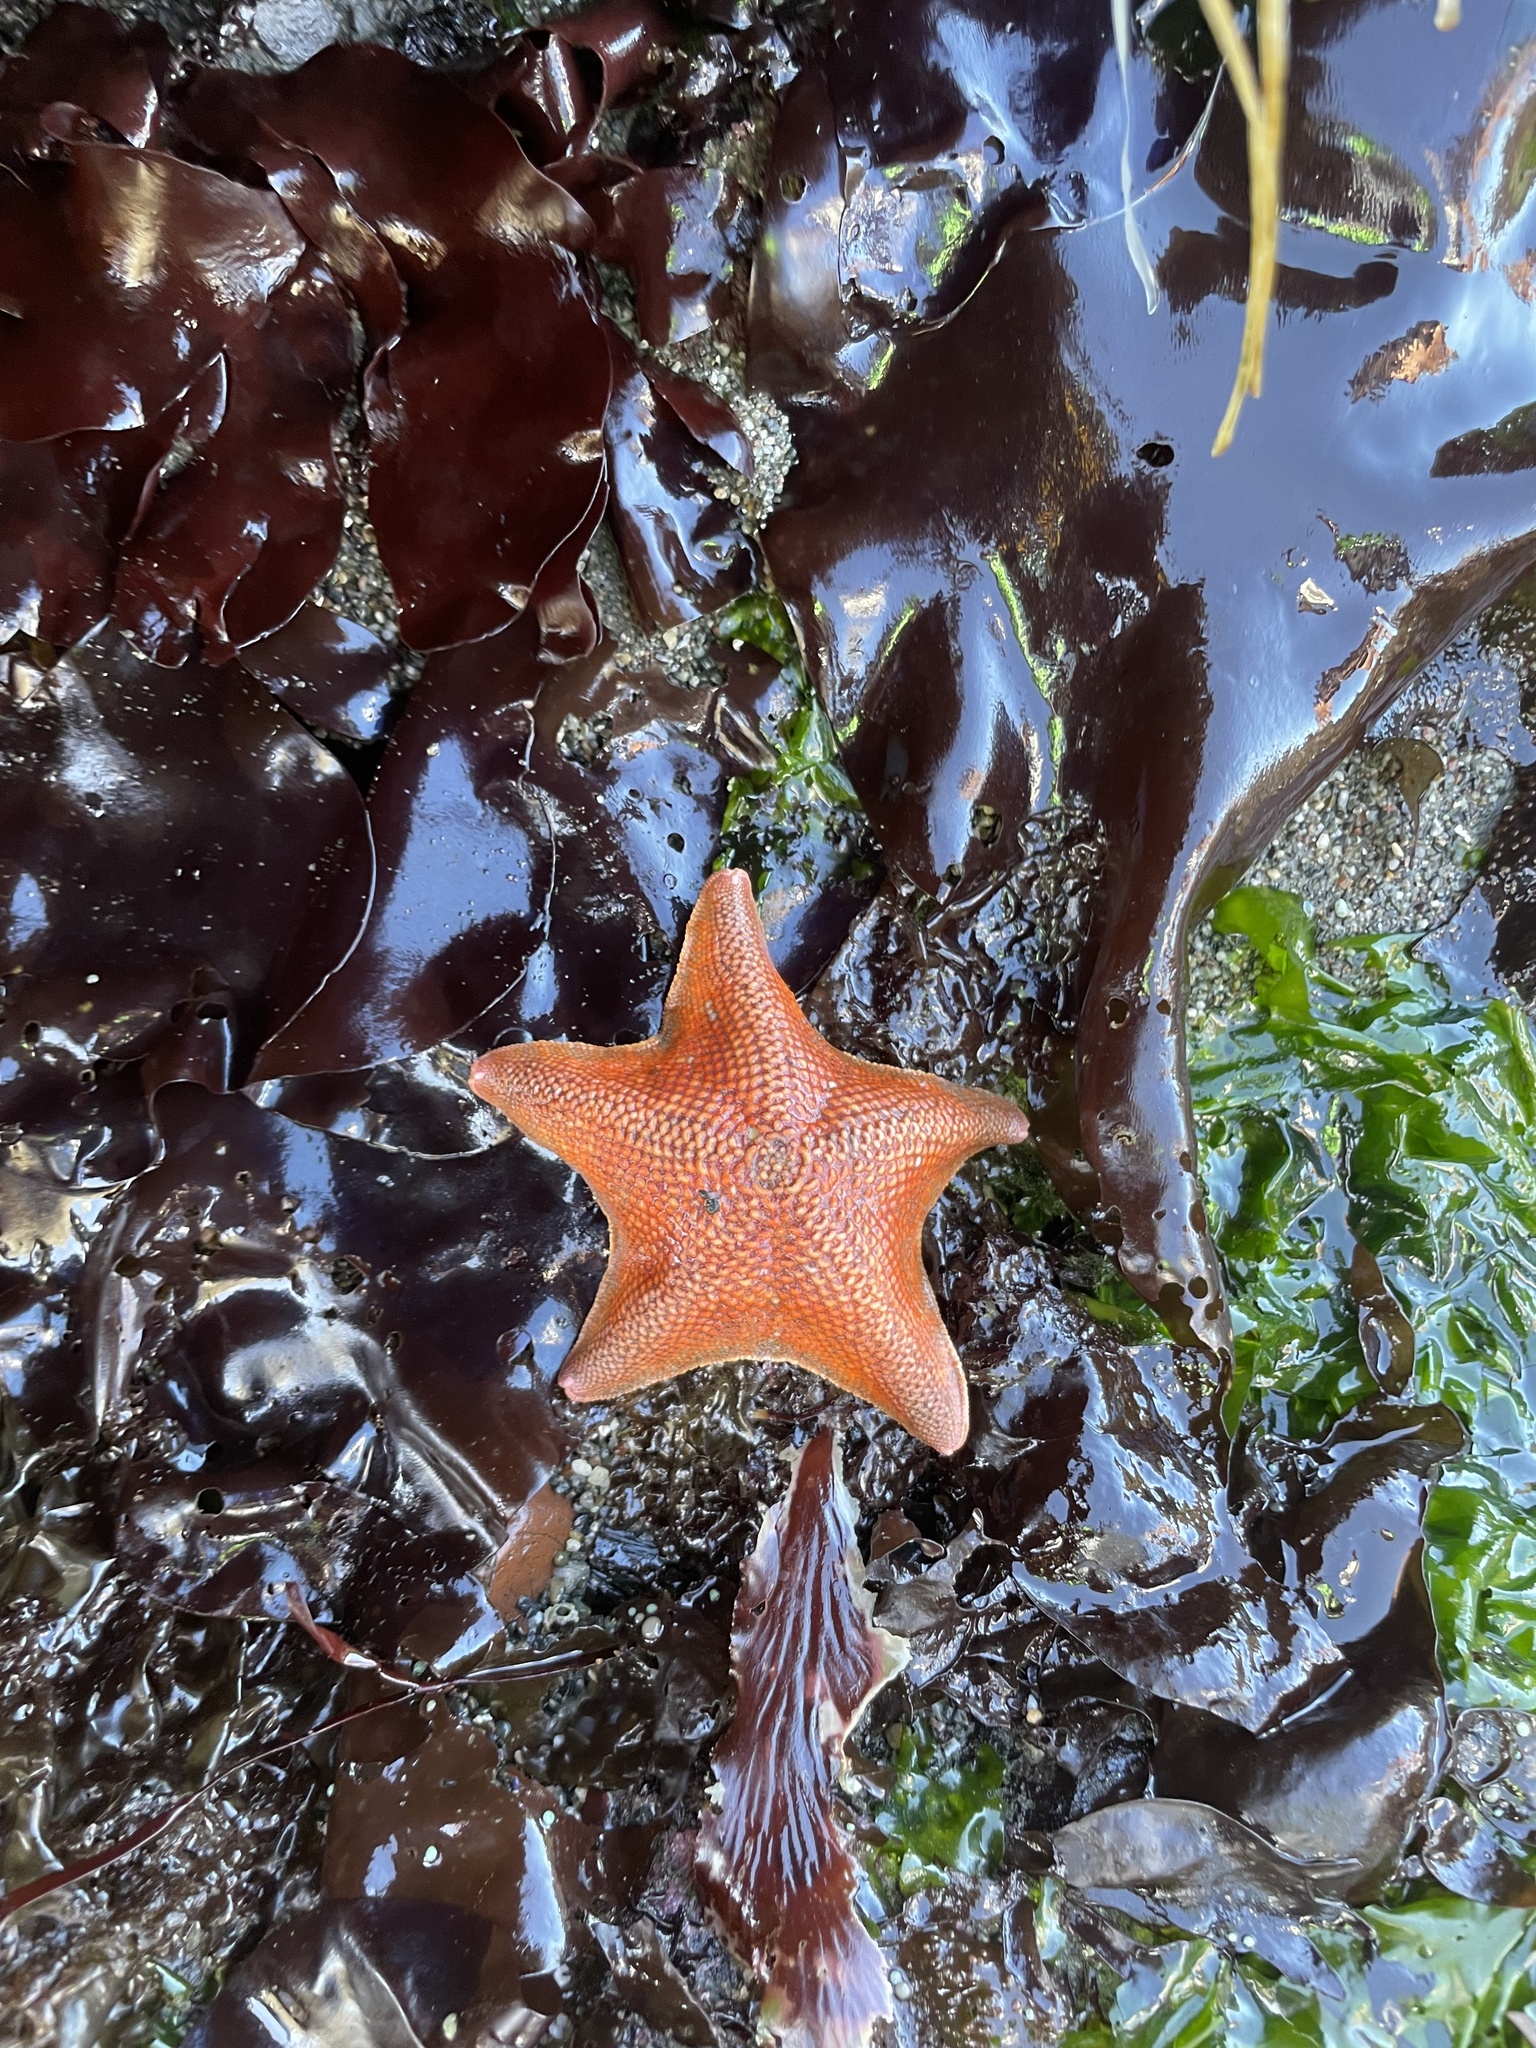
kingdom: Animalia
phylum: Echinodermata
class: Asteroidea
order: Valvatida
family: Asterinidae
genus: Patiria
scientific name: Patiria miniata
